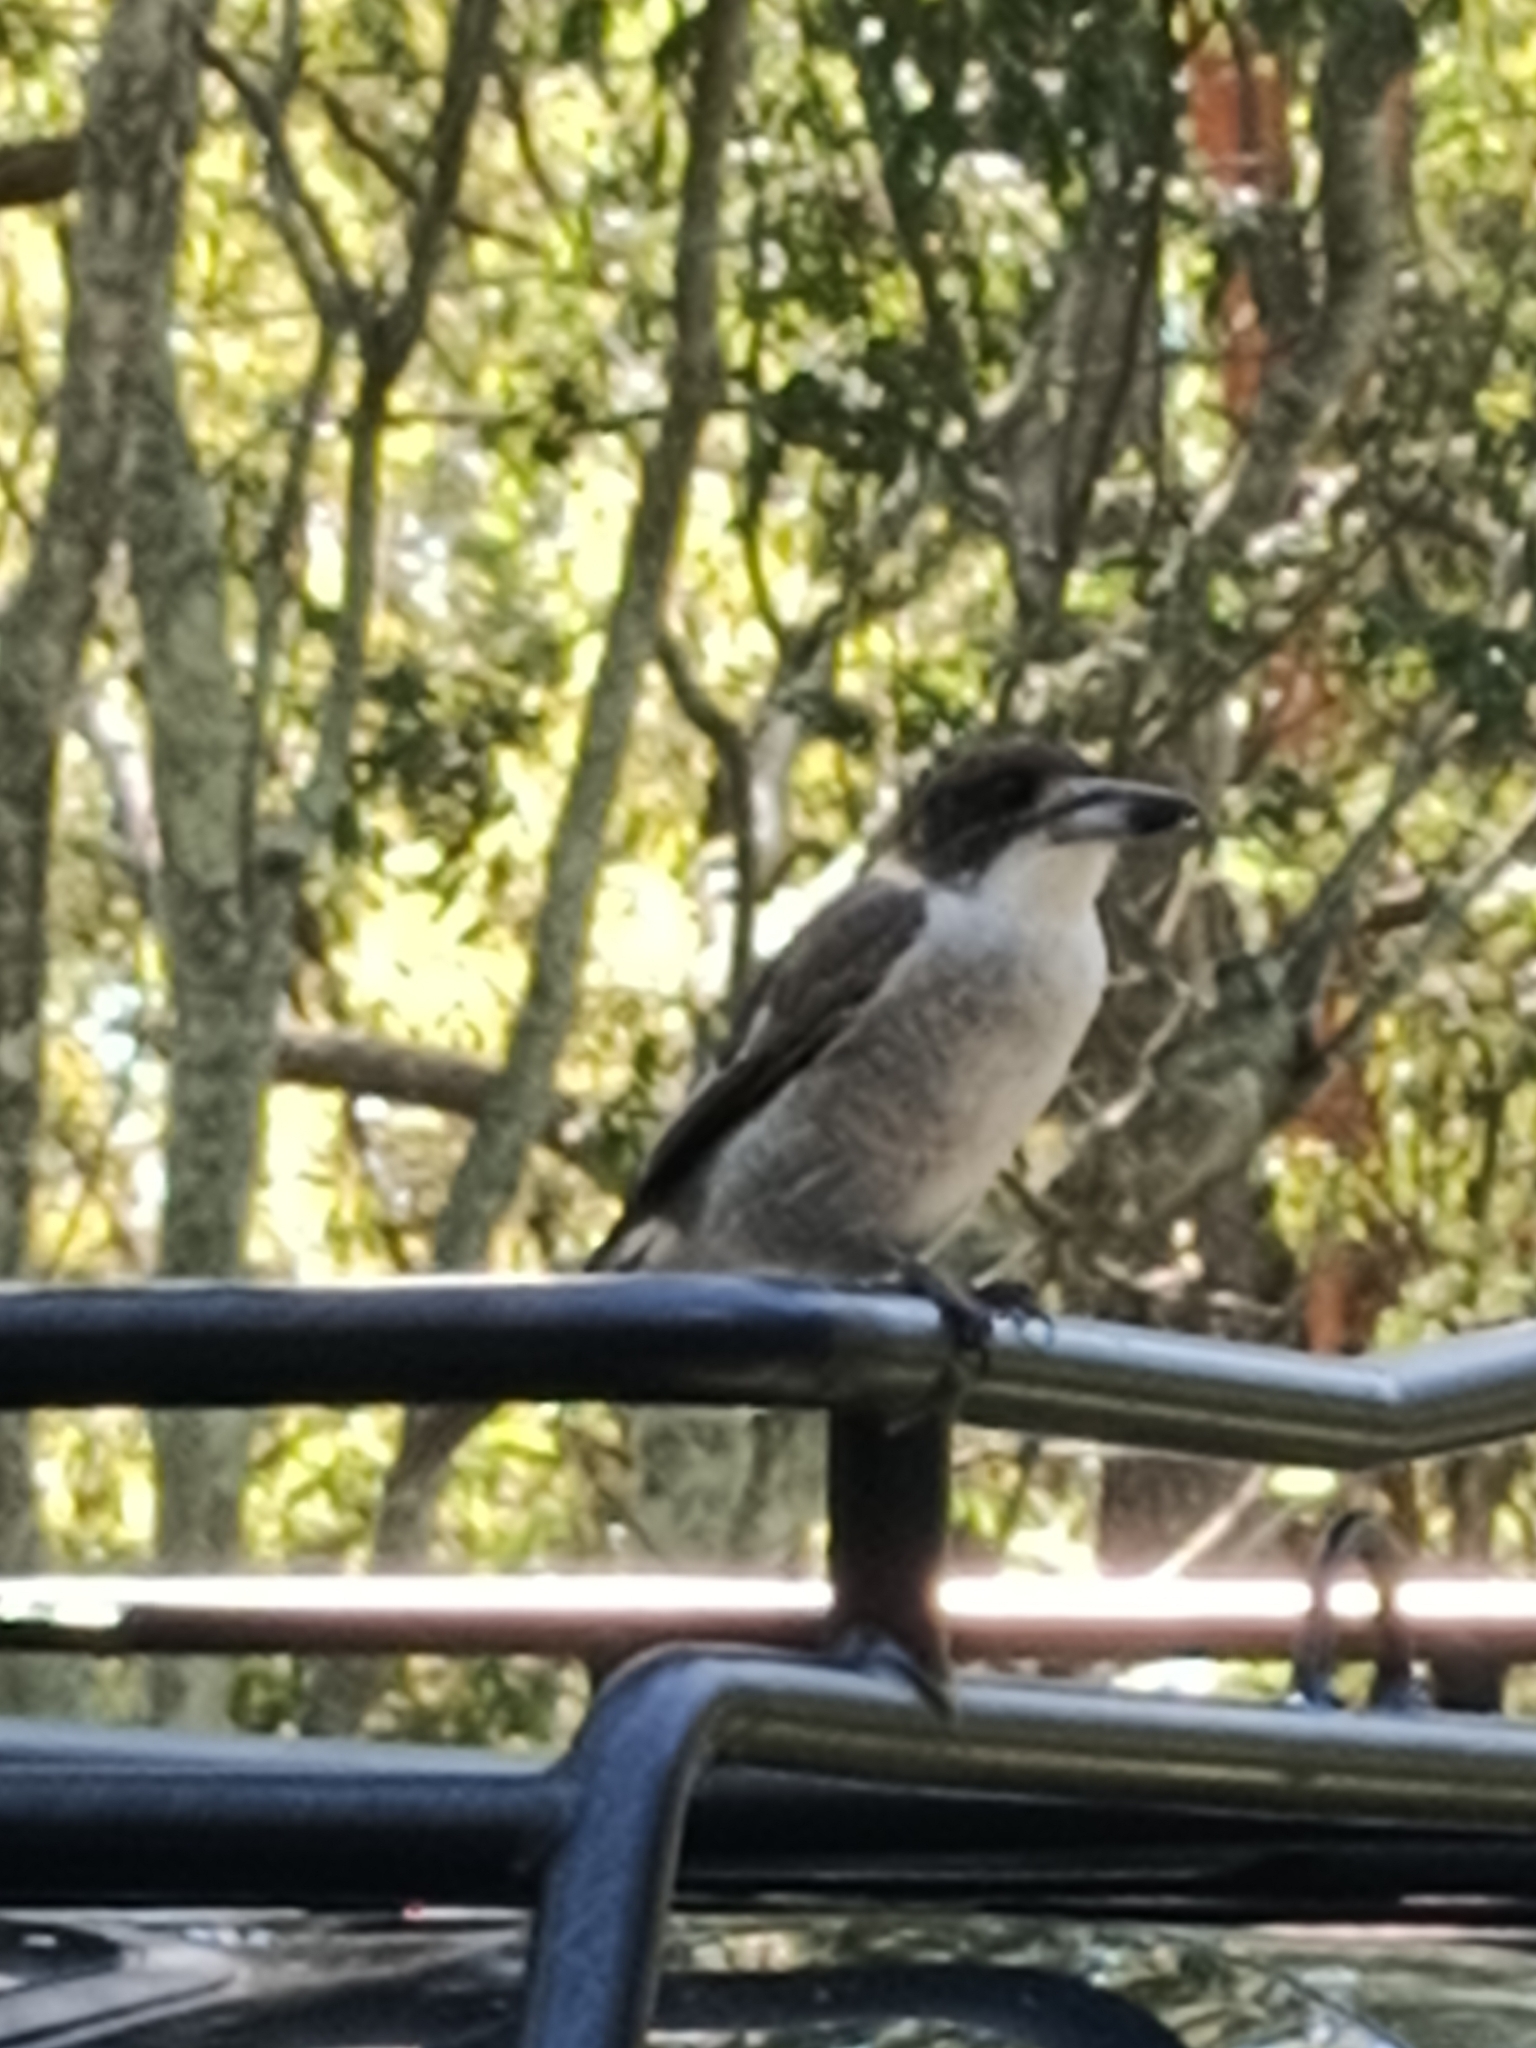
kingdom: Animalia
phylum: Chordata
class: Aves
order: Passeriformes
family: Cracticidae
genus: Cracticus
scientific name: Cracticus torquatus
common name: Grey butcherbird
